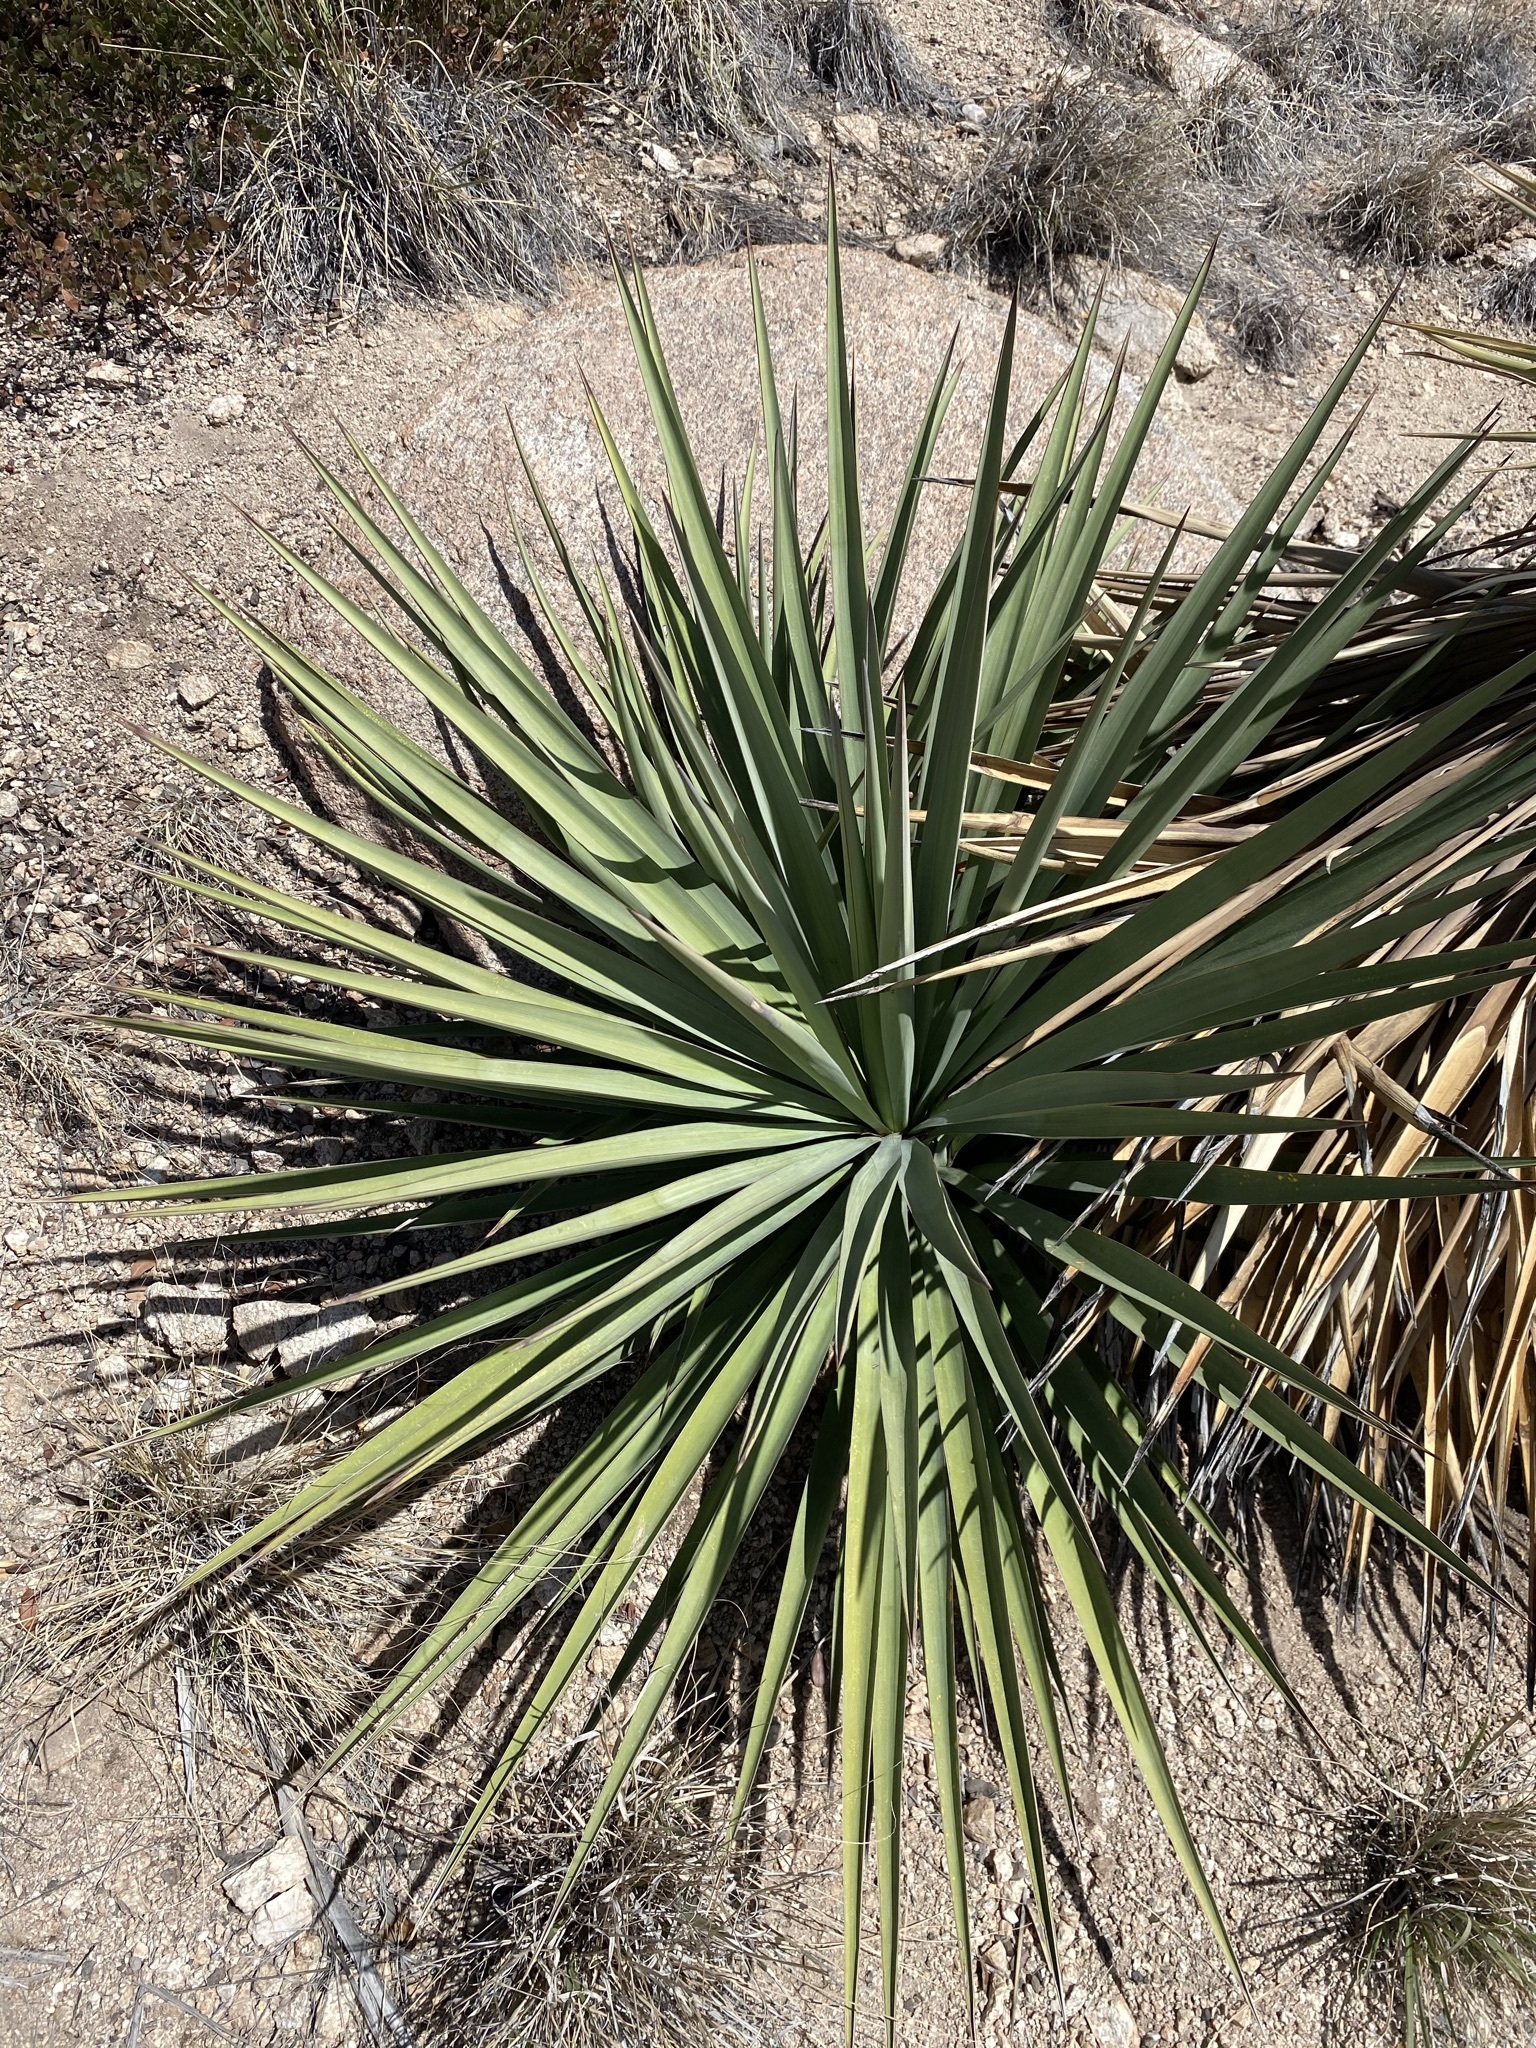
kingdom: Plantae
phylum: Tracheophyta
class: Liliopsida
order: Asparagales
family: Asparagaceae
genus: Yucca
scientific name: Yucca madrensis
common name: Hoary yucca
